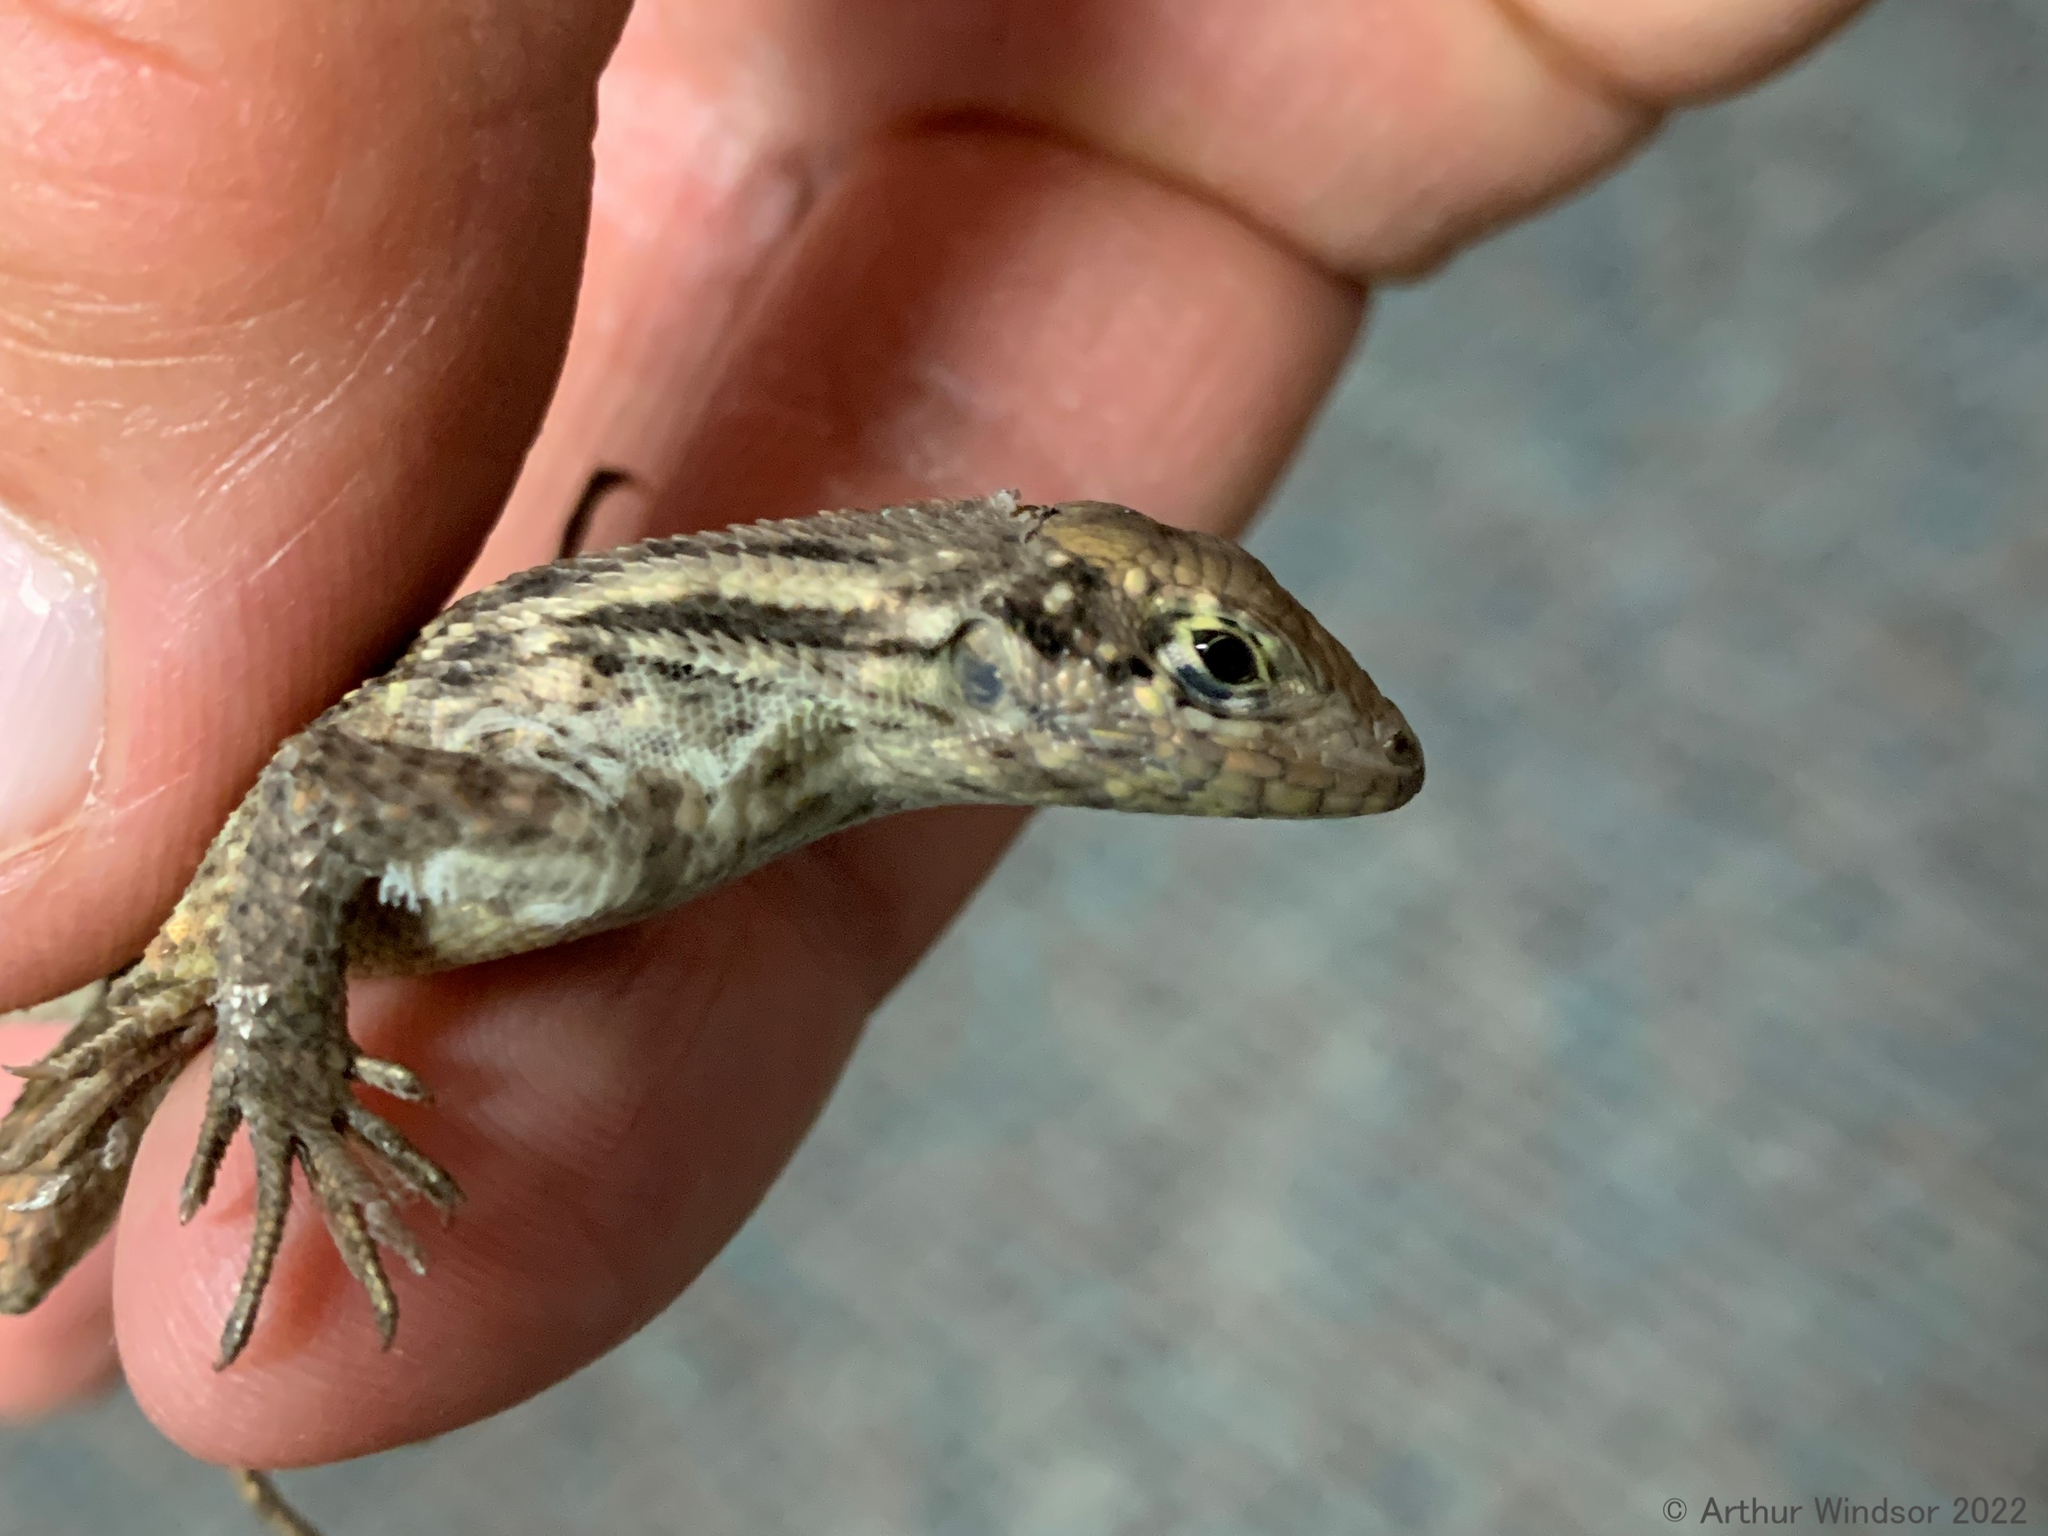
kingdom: Animalia
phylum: Chordata
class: Squamata
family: Leiocephalidae
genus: Leiocephalus
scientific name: Leiocephalus carinatus
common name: Northern curly-tailed lizard
